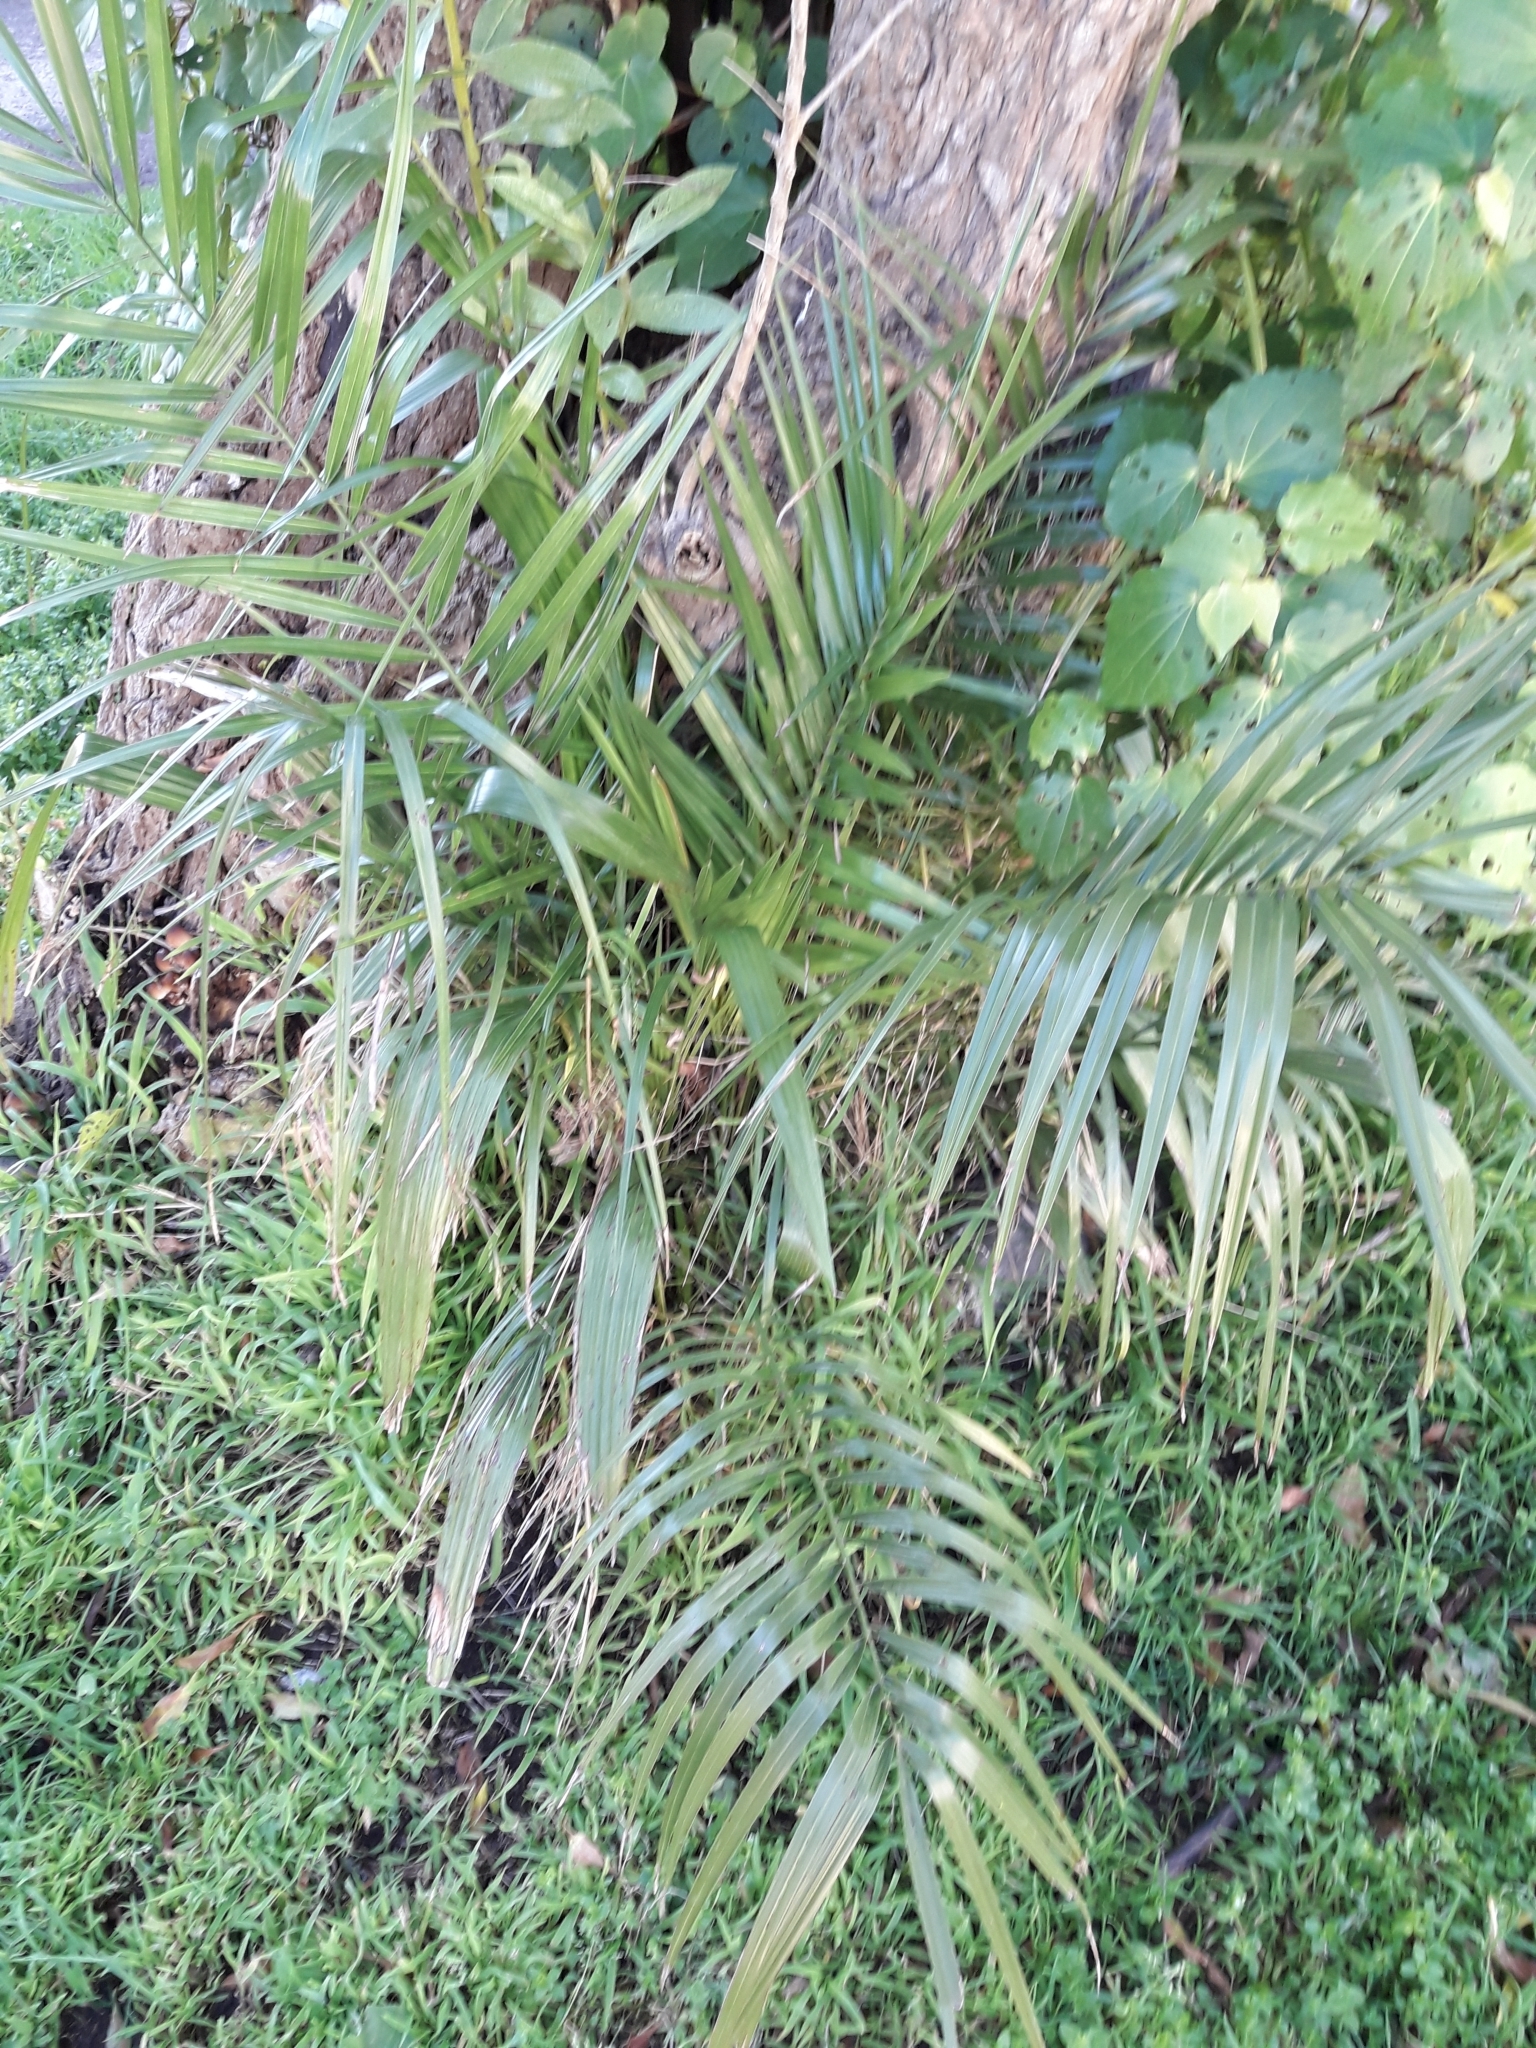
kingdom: Plantae
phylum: Tracheophyta
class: Liliopsida
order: Arecales
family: Arecaceae
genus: Phoenix
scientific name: Phoenix canariensis
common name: Canary island date palm
